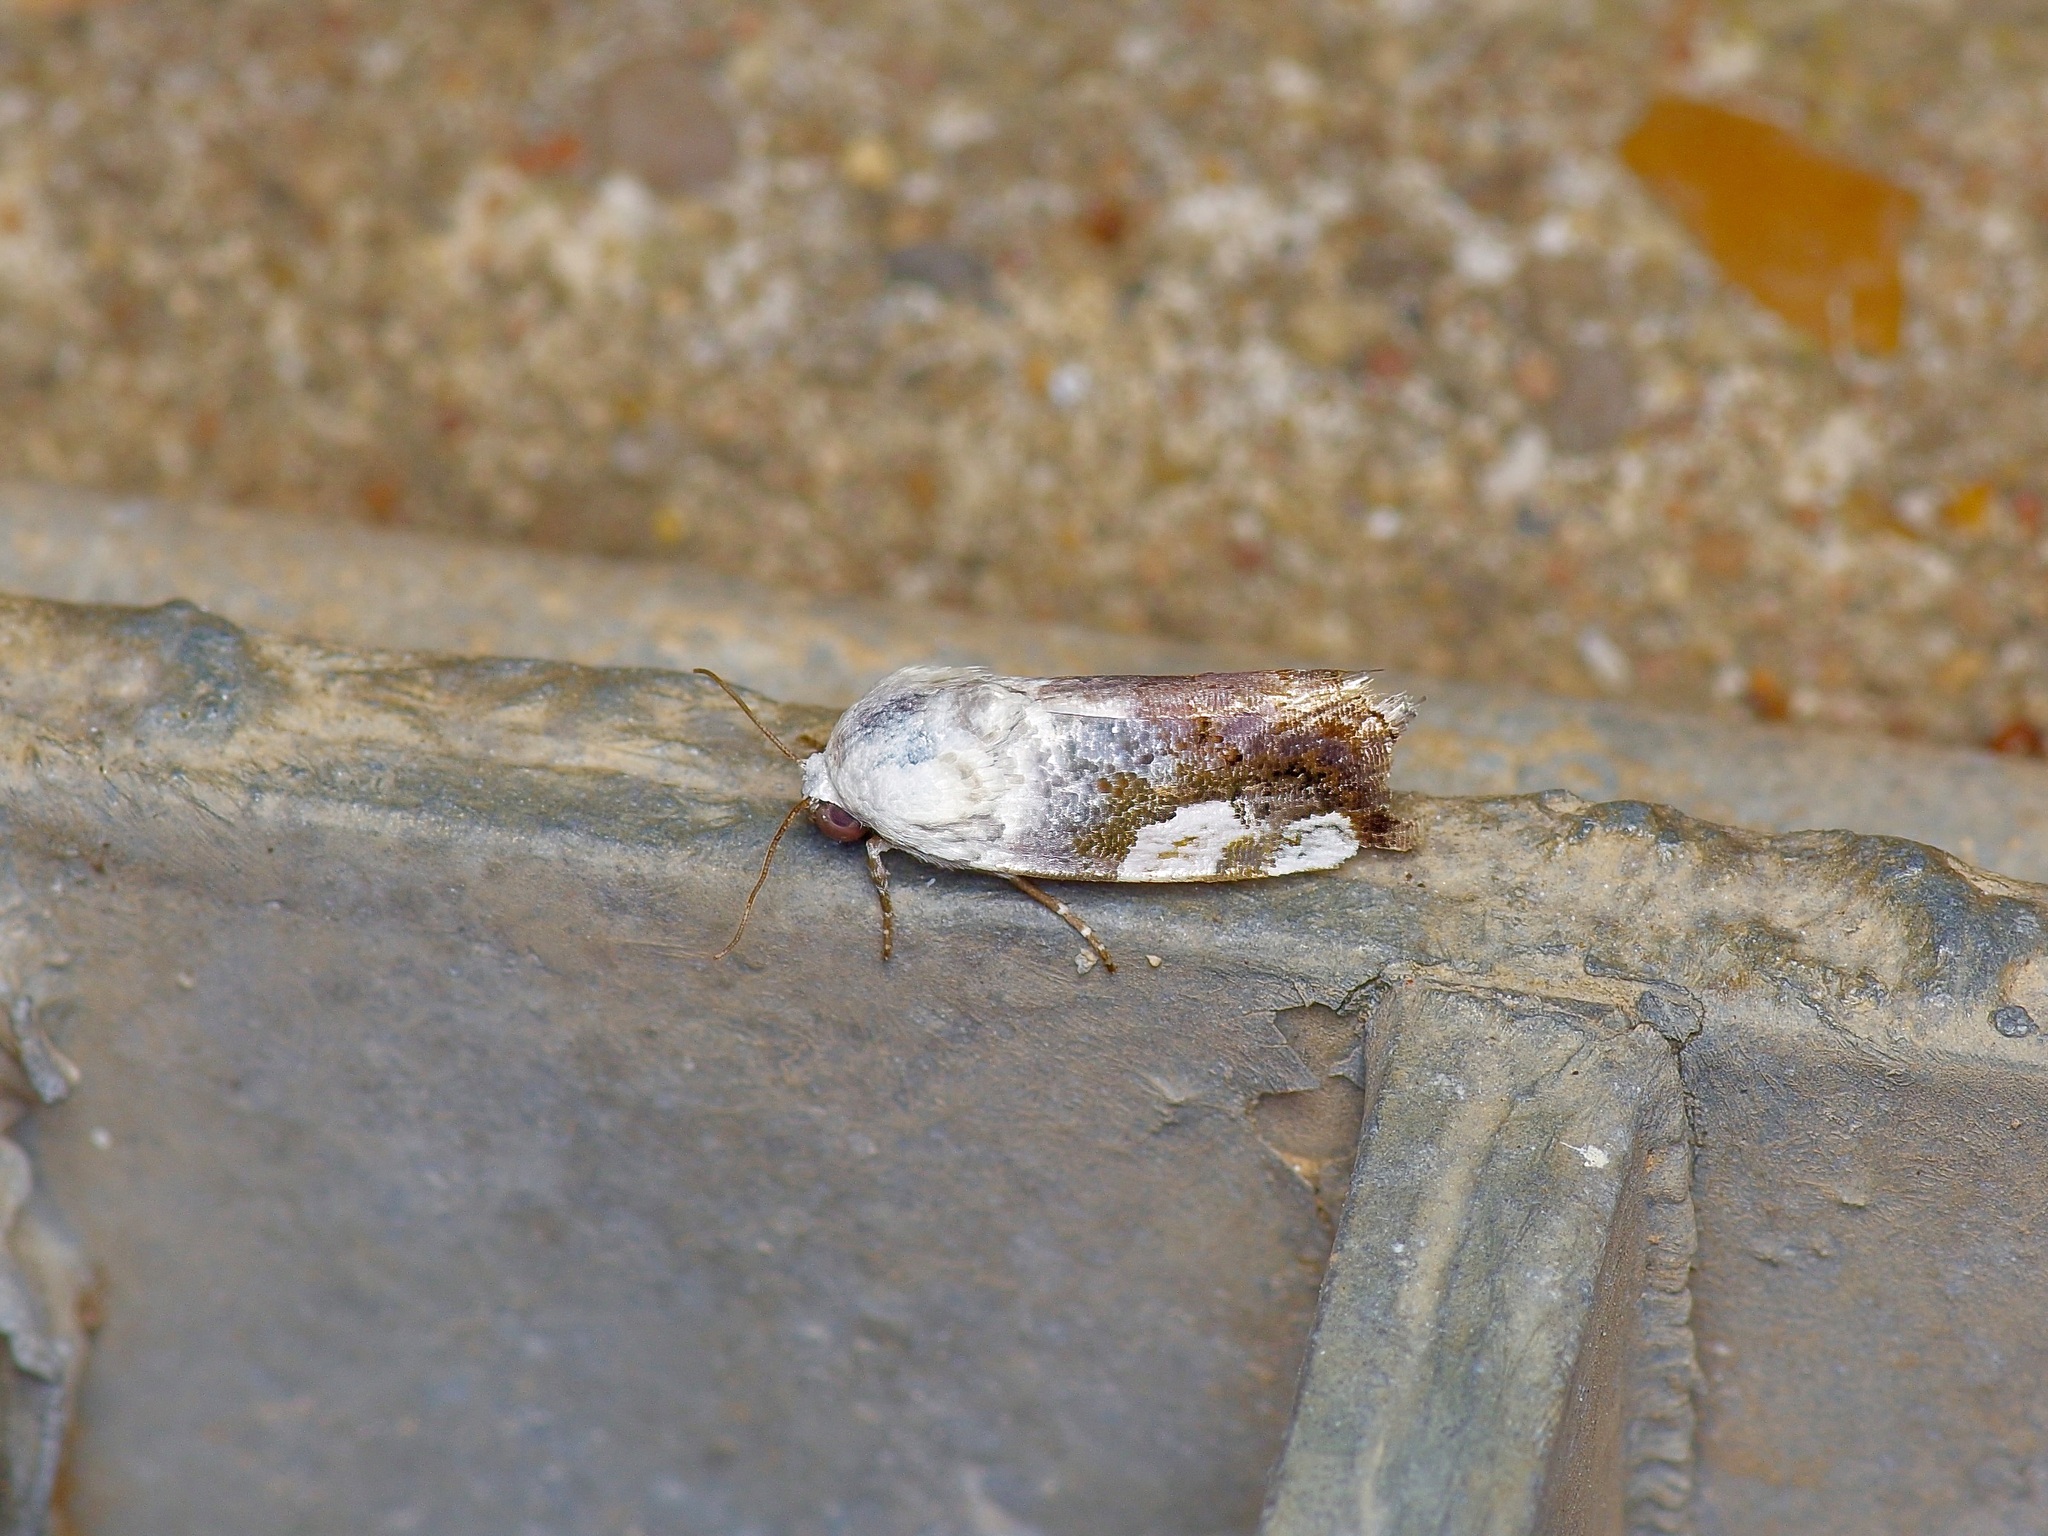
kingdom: Animalia
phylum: Arthropoda
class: Insecta
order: Lepidoptera
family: Noctuidae
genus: Acontia
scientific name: Acontia quadriplaga
